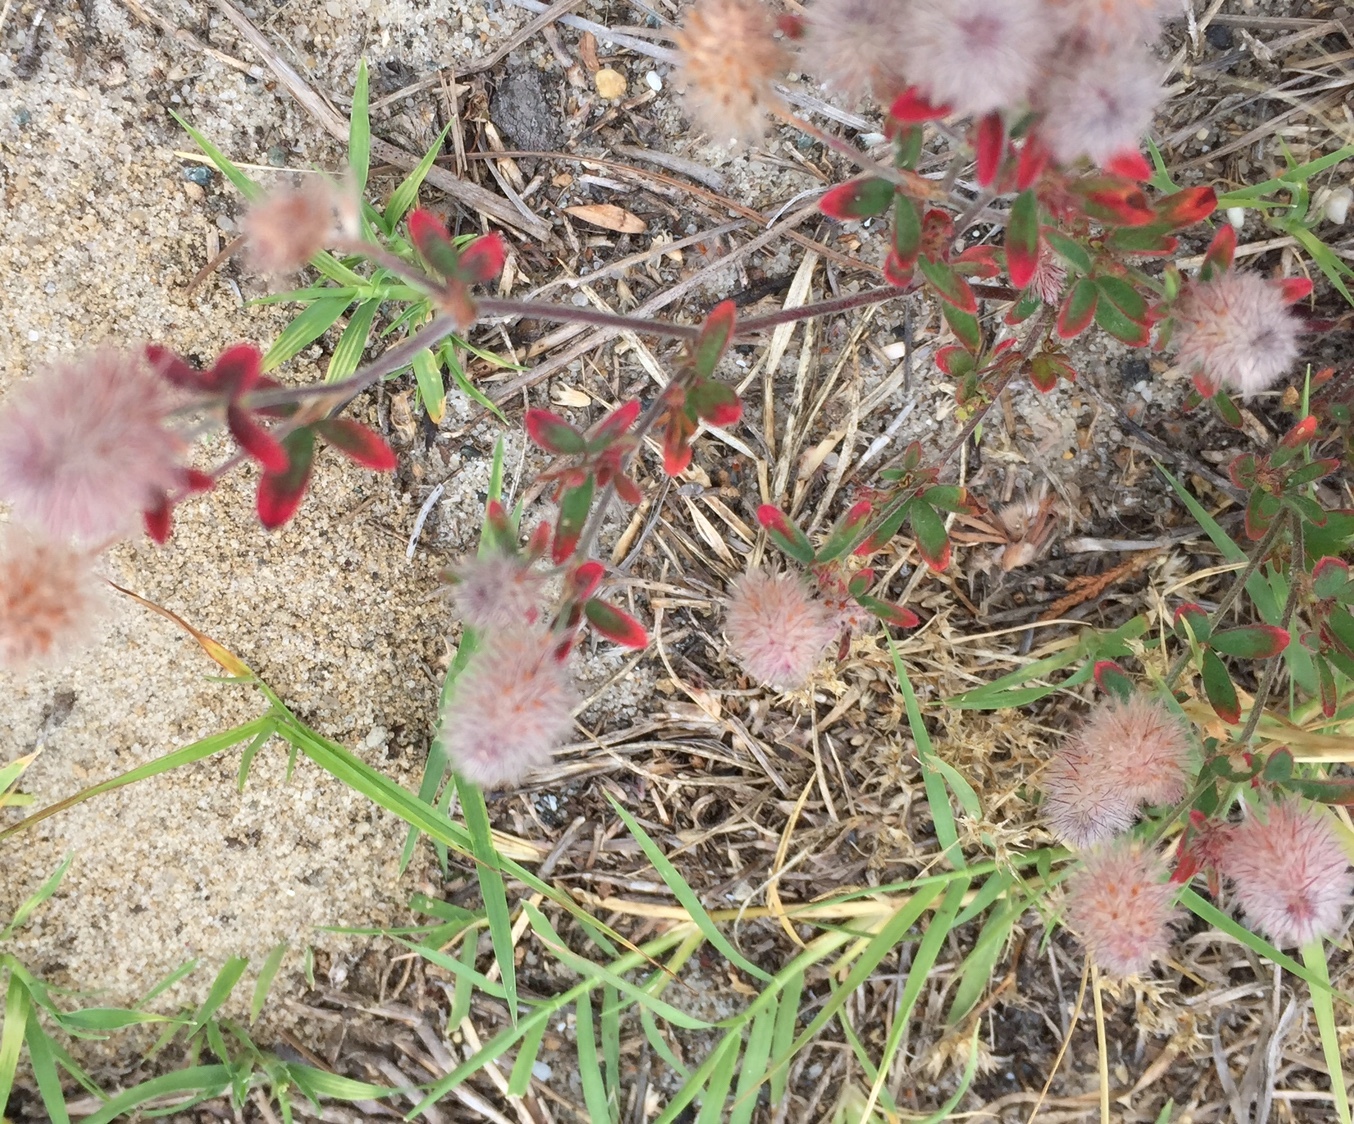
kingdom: Plantae
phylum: Tracheophyta
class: Magnoliopsida
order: Fabales
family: Fabaceae
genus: Trifolium
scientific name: Trifolium arvense
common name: Hare's-foot clover
